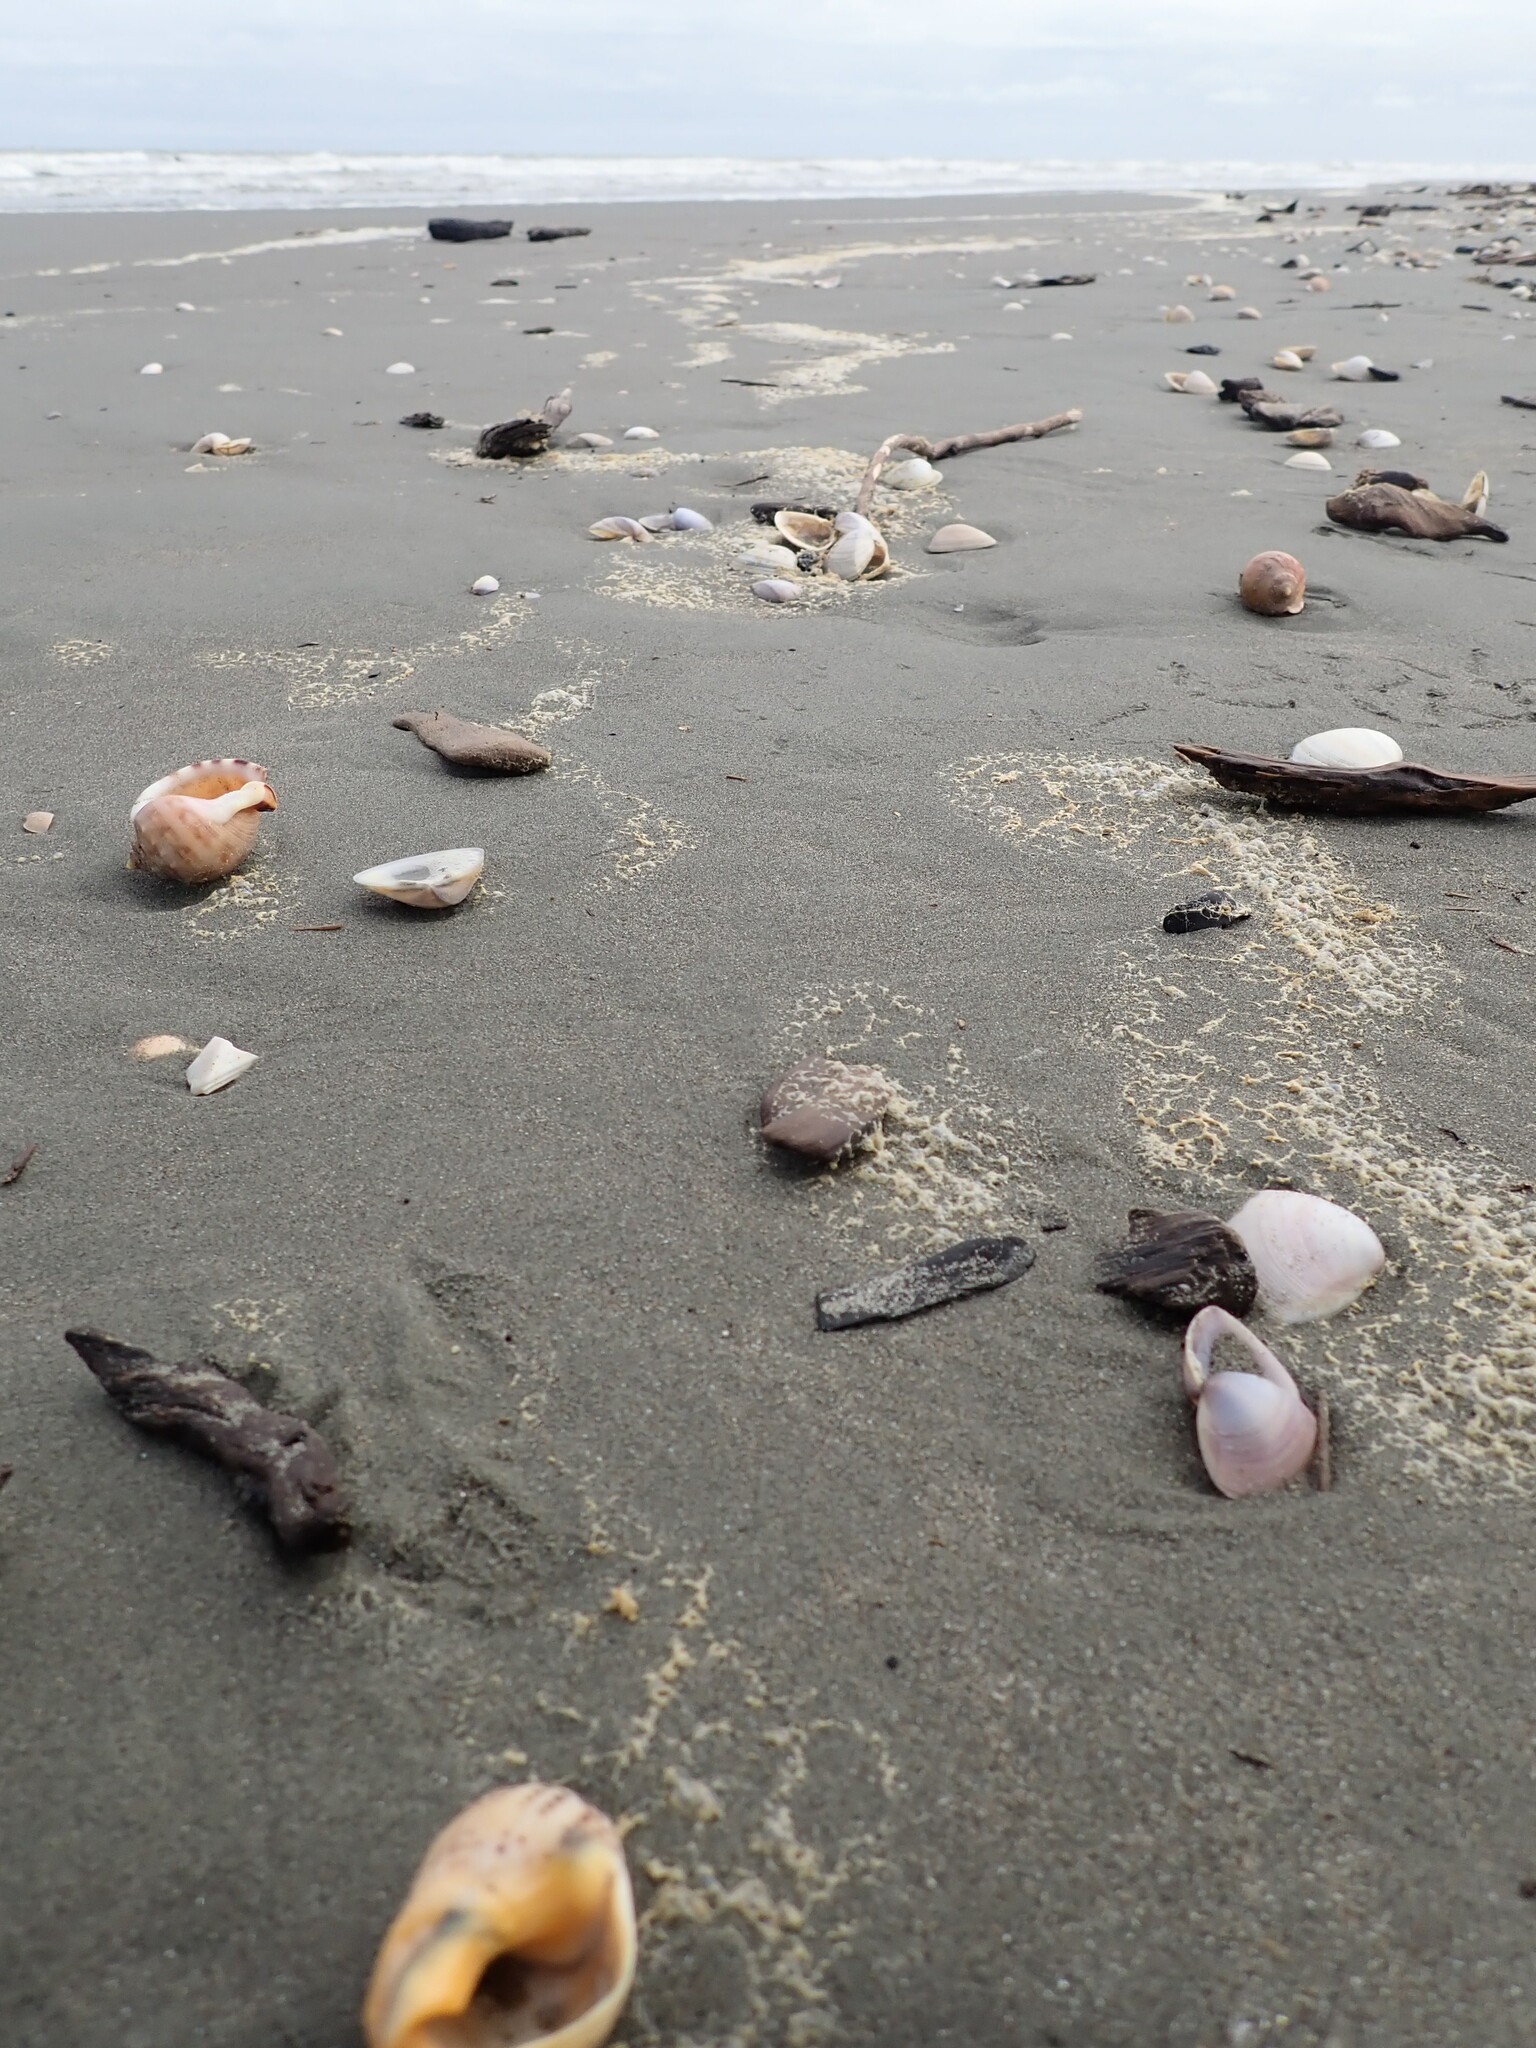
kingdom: Animalia
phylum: Mollusca
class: Gastropoda
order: Neogastropoda
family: Cominellidae
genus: Cominella
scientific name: Cominella adspersa
